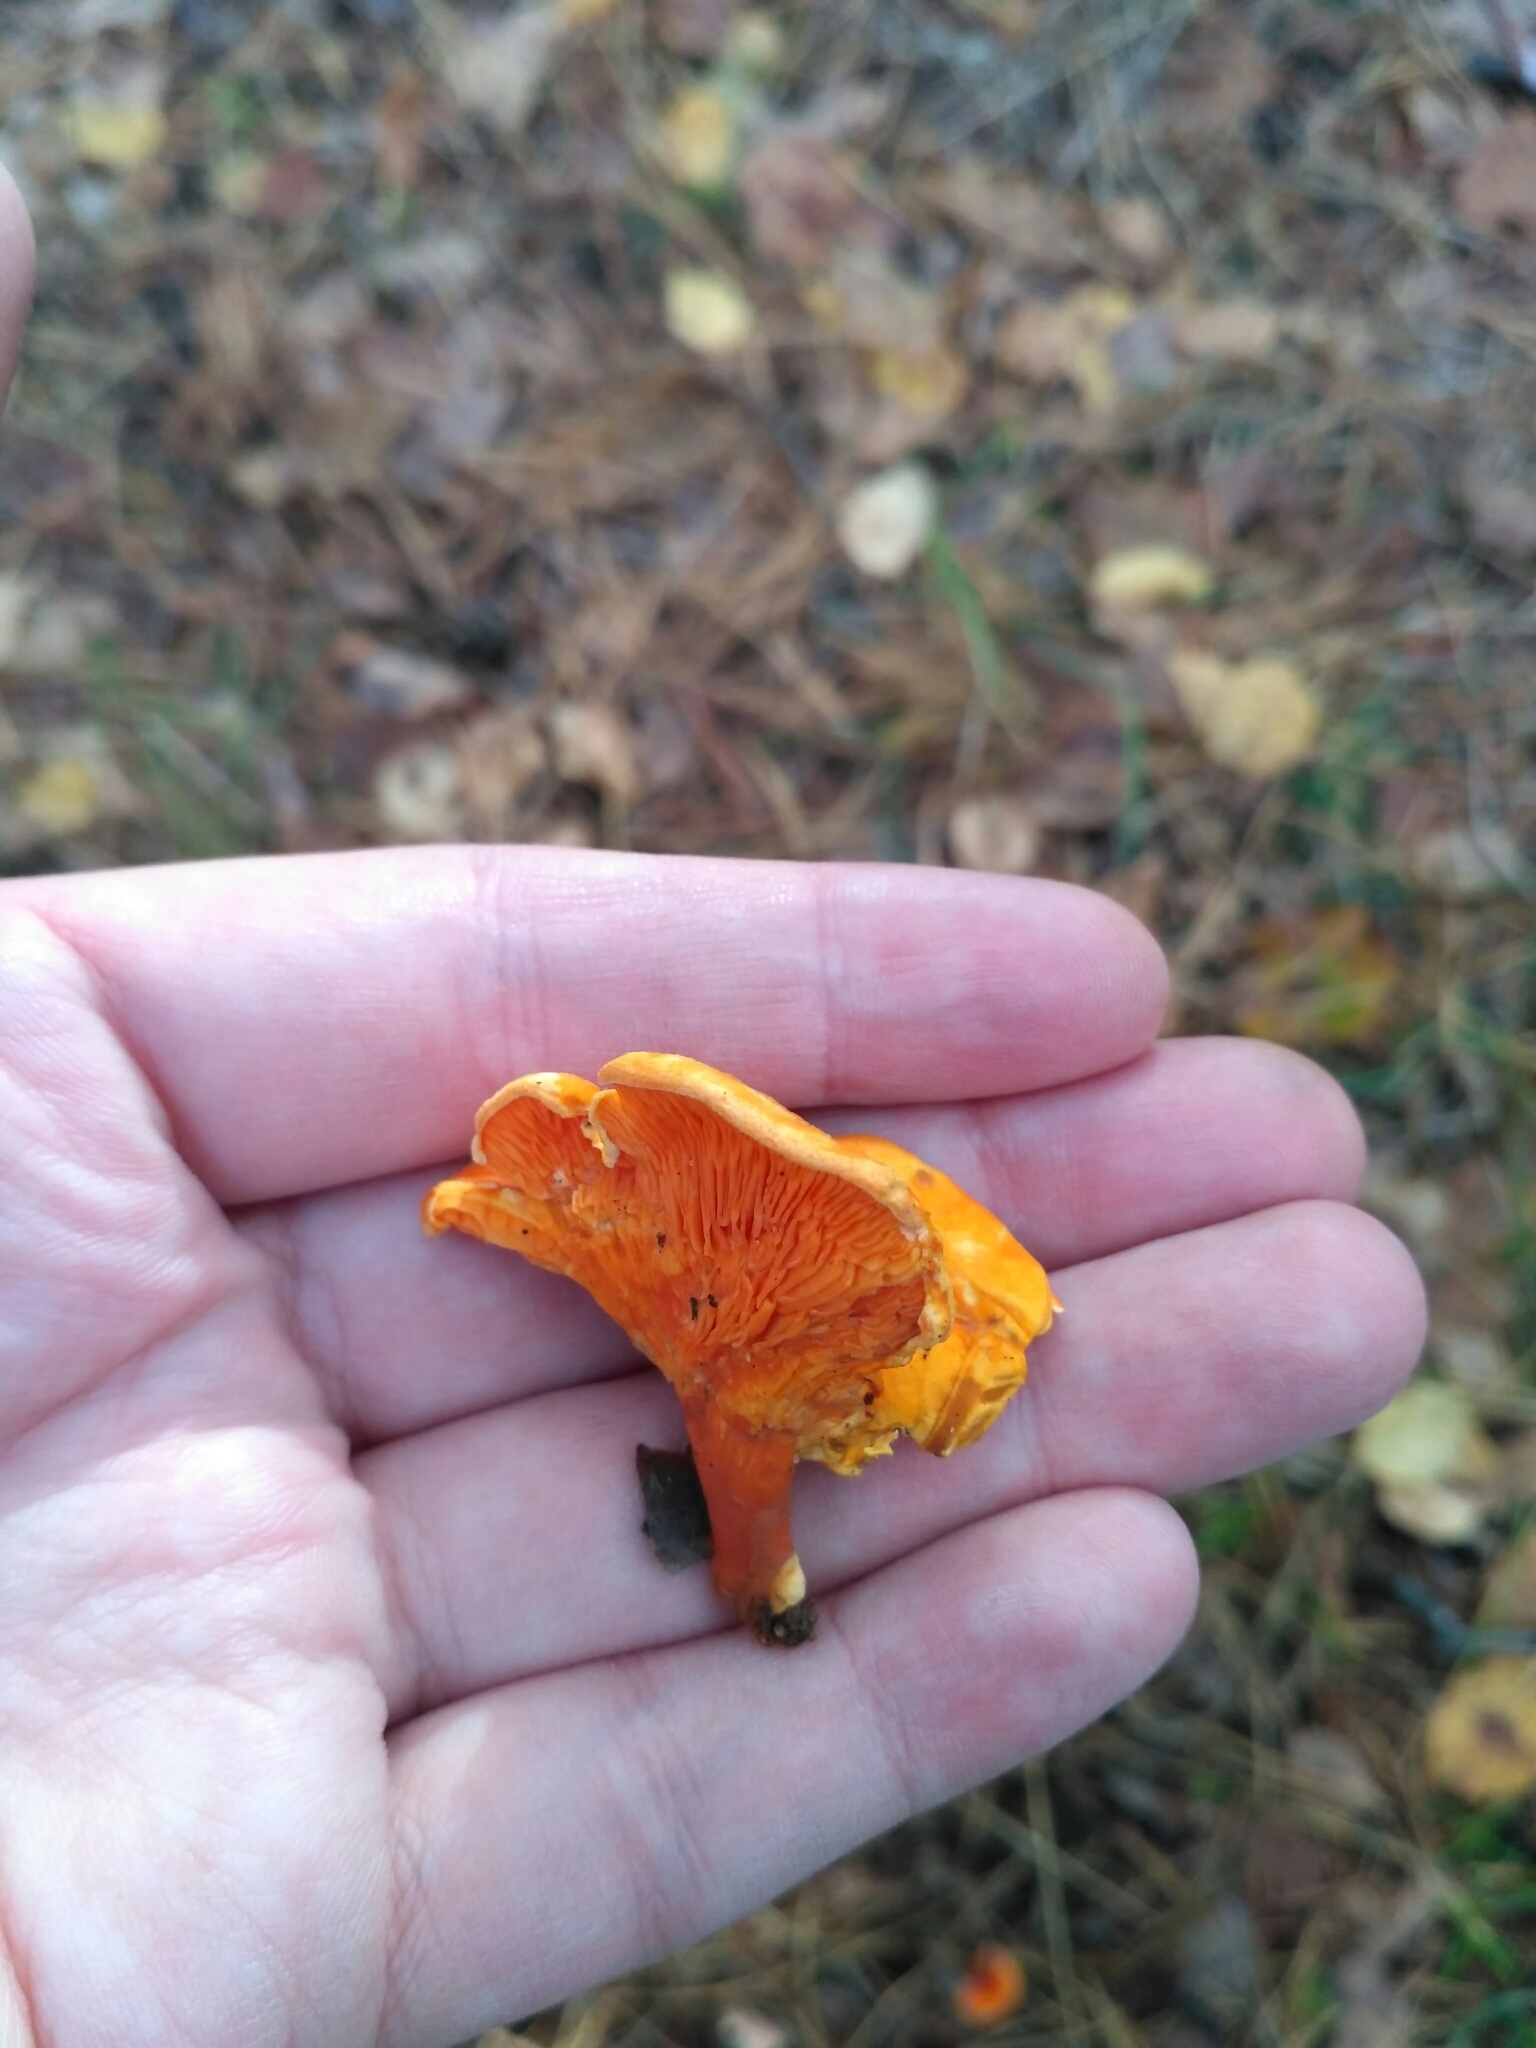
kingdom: Fungi
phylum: Basidiomycota
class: Agaricomycetes
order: Boletales
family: Hygrophoropsidaceae
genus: Hygrophoropsis
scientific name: Hygrophoropsis aurantiaca
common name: False chanterelle
